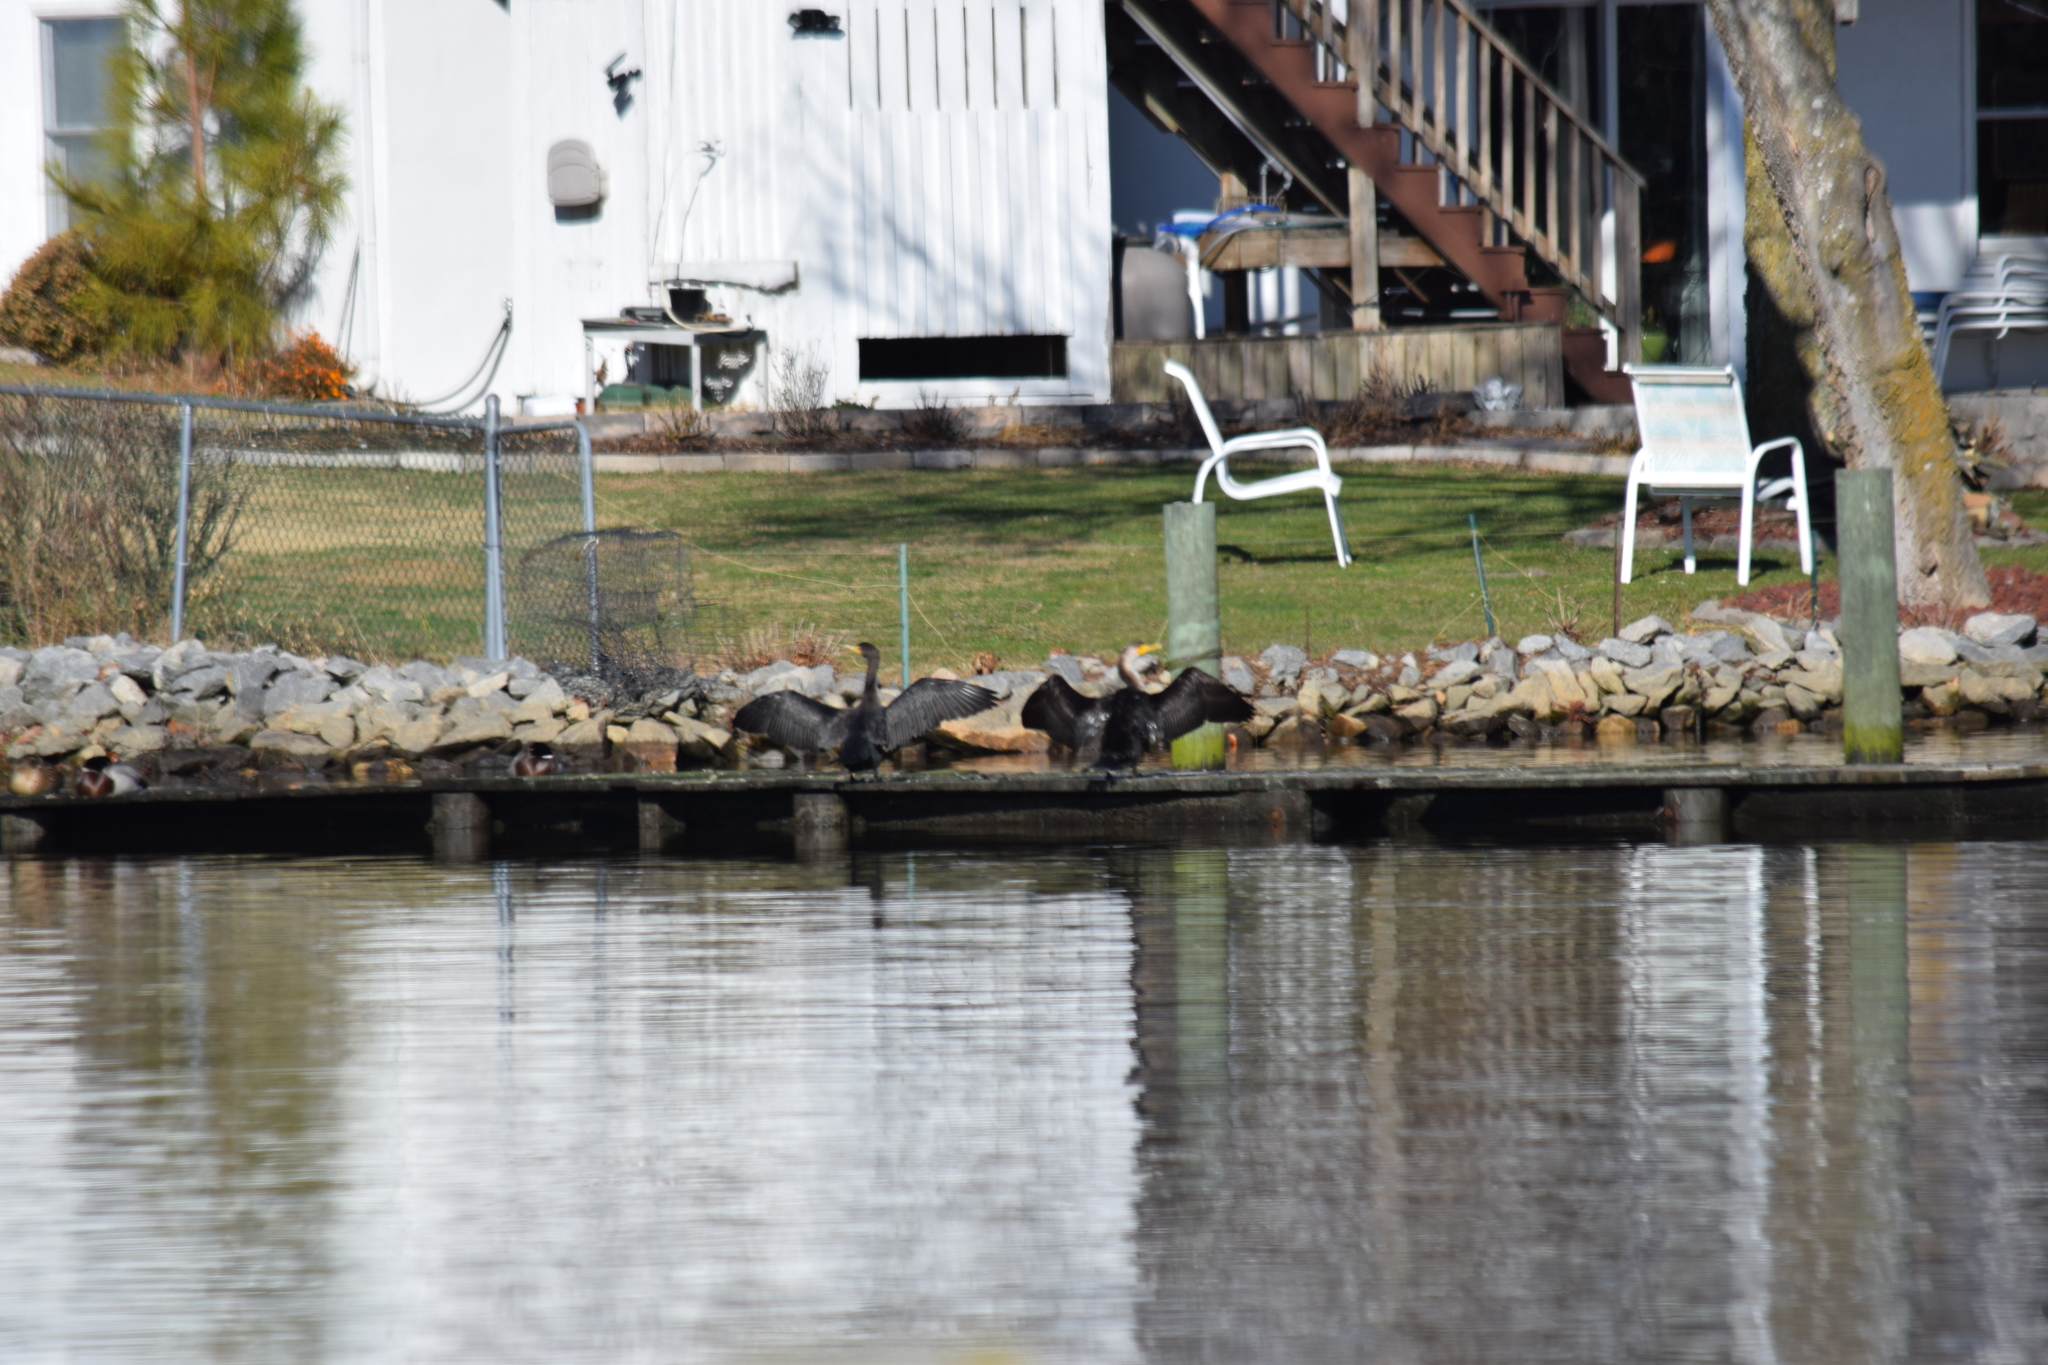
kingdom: Animalia
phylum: Chordata
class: Aves
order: Suliformes
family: Phalacrocoracidae
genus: Phalacrocorax
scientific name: Phalacrocorax auritus
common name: Double-crested cormorant
